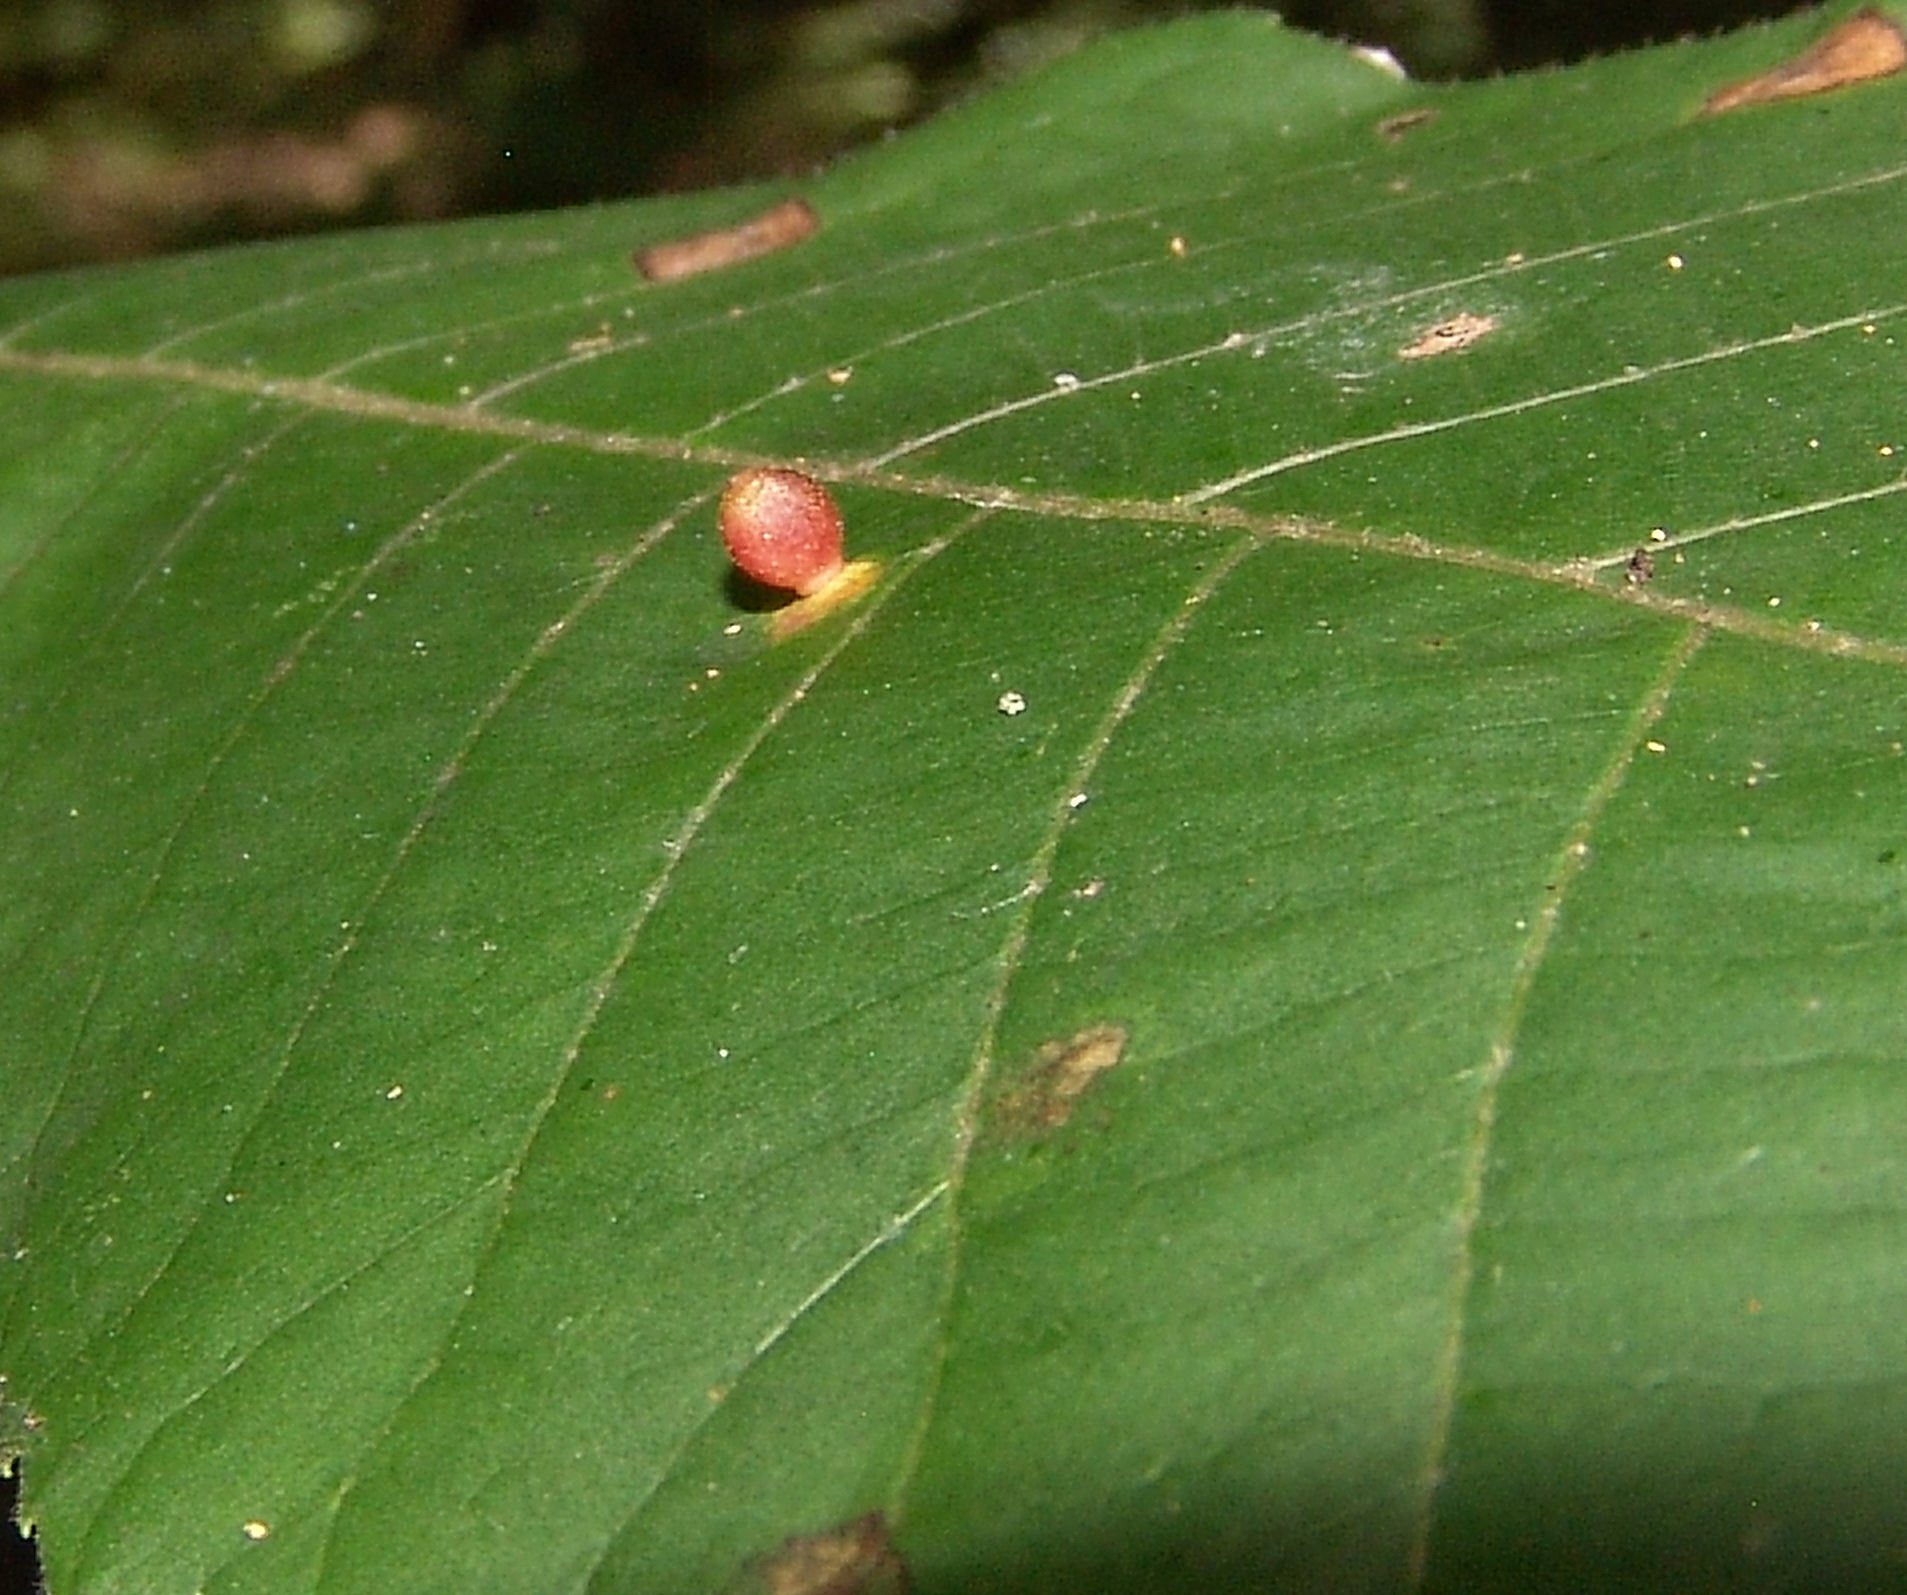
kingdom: Animalia
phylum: Arthropoda
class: Insecta
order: Diptera
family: Cecidomyiidae
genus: Caryomyia
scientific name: Caryomyia viscidolium
